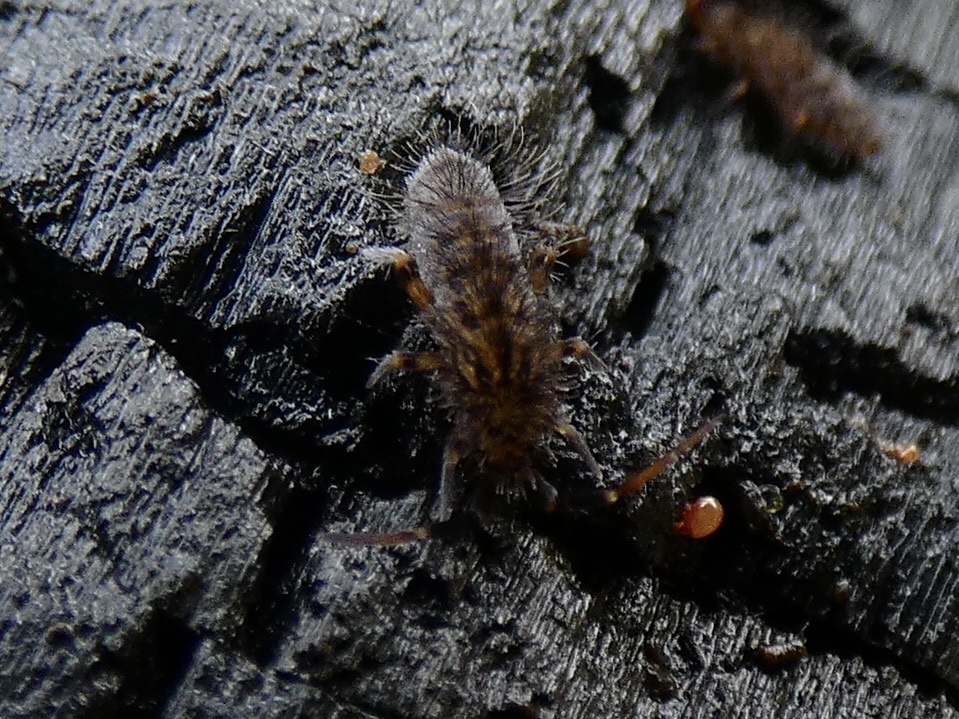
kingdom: Animalia
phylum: Arthropoda
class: Collembola
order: Entomobryomorpha
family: Orchesellidae
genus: Orchesella
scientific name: Orchesella villosa
